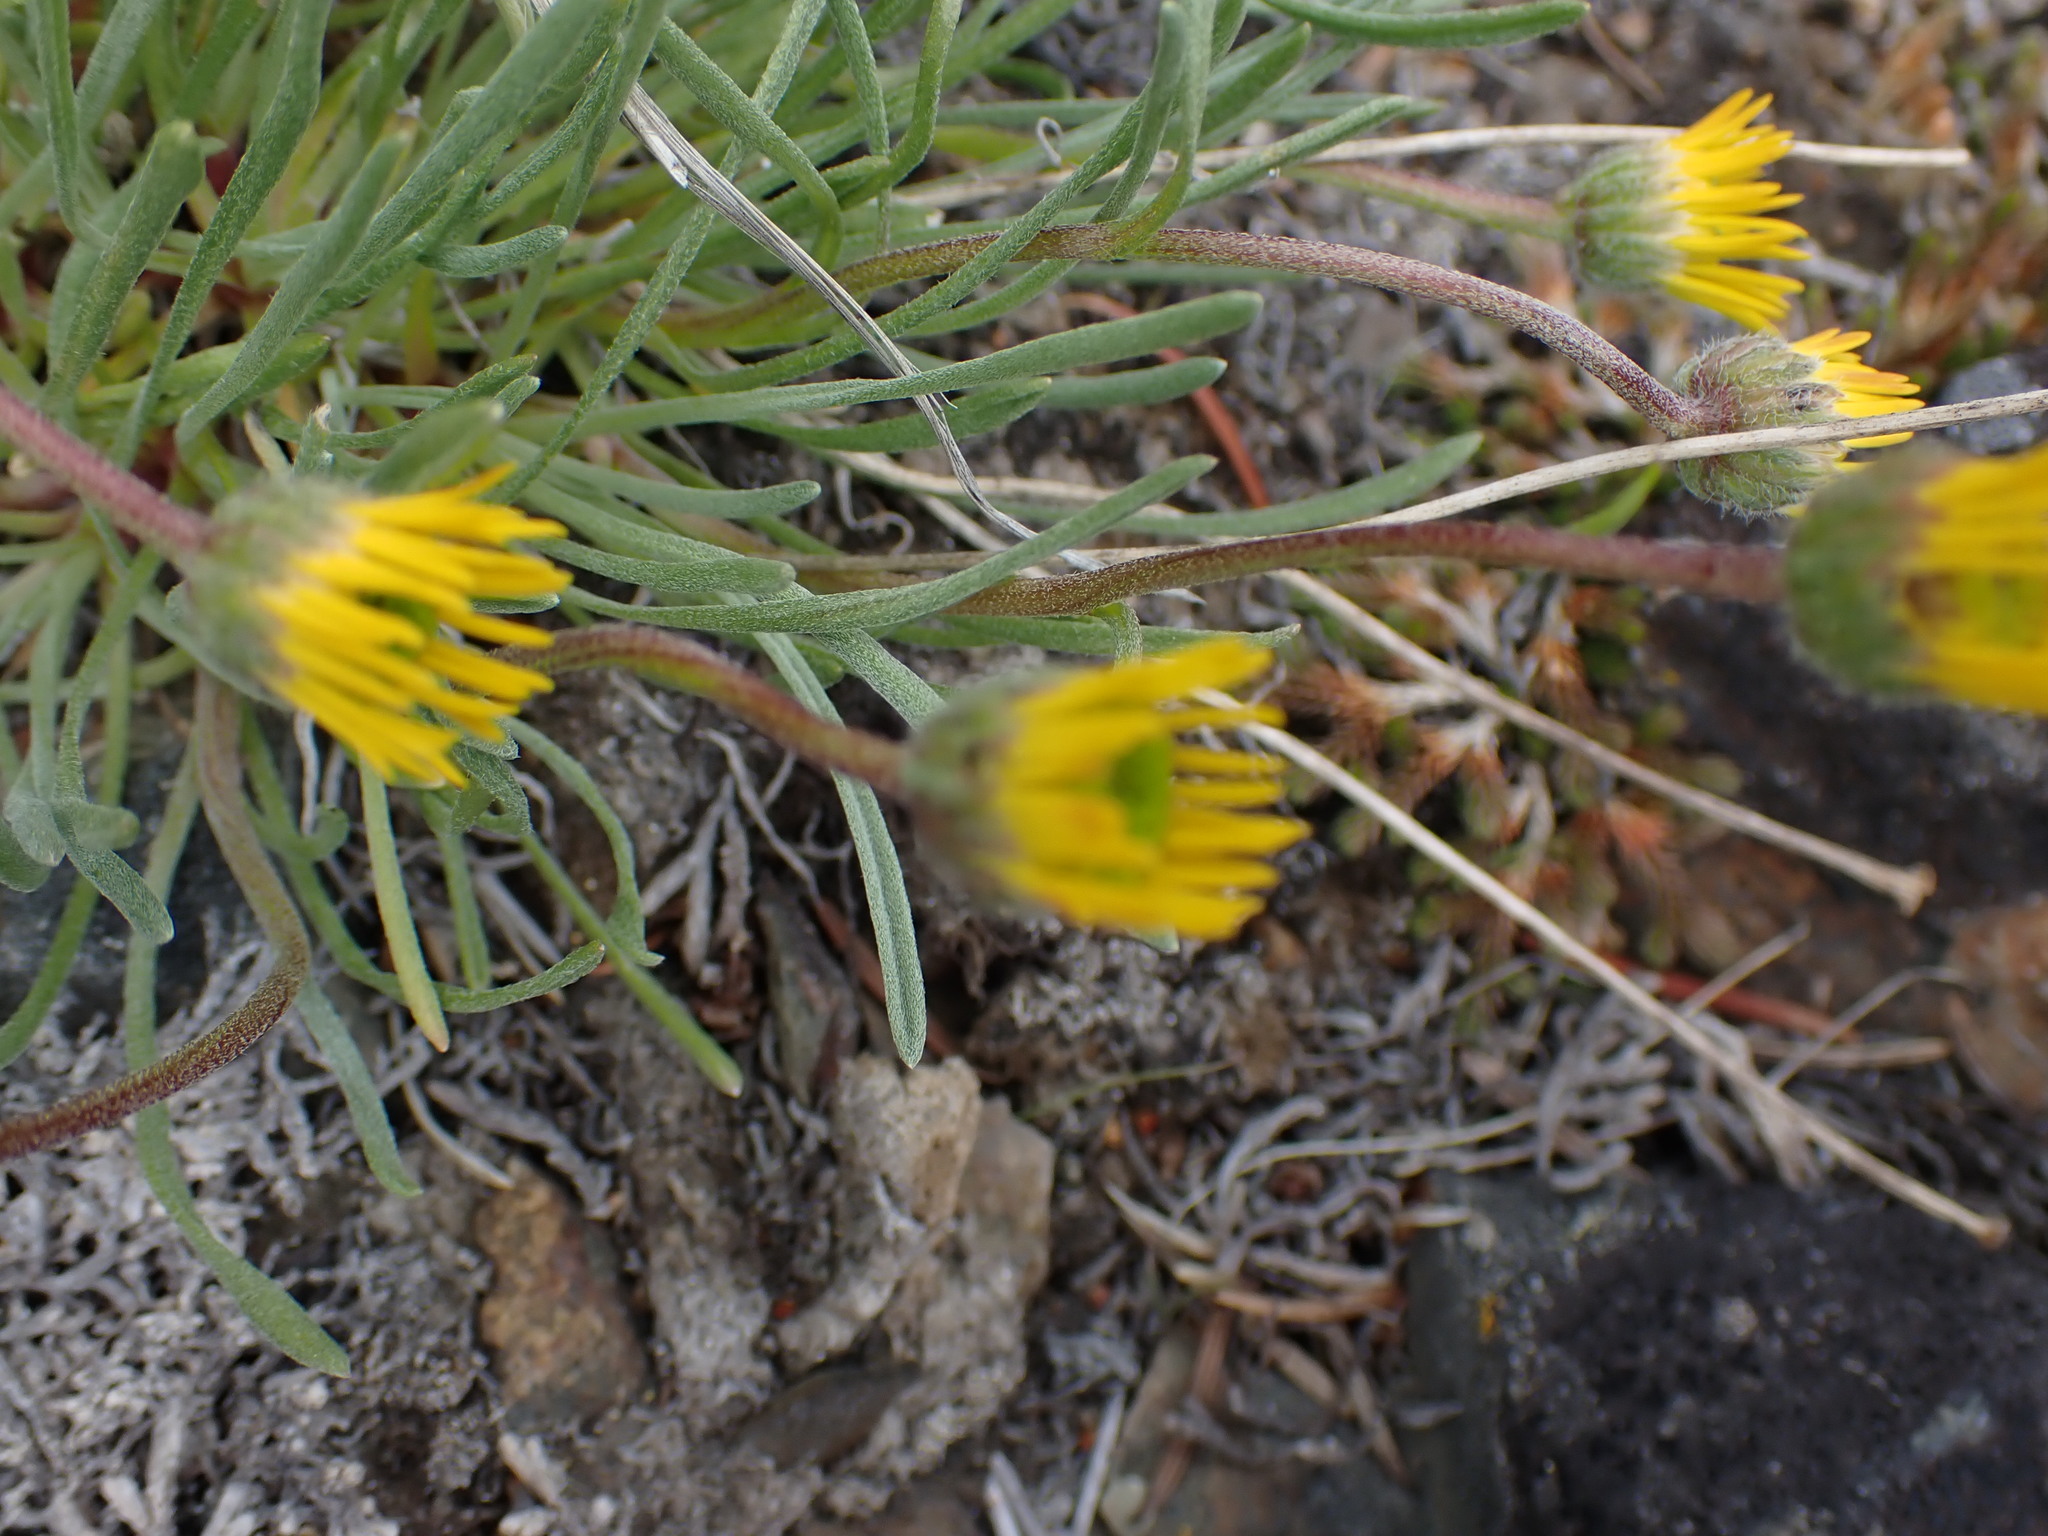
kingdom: Plantae
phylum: Tracheophyta
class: Magnoliopsida
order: Asterales
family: Asteraceae
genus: Erigeron
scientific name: Erigeron linearis
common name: Desert yellow fleabane
